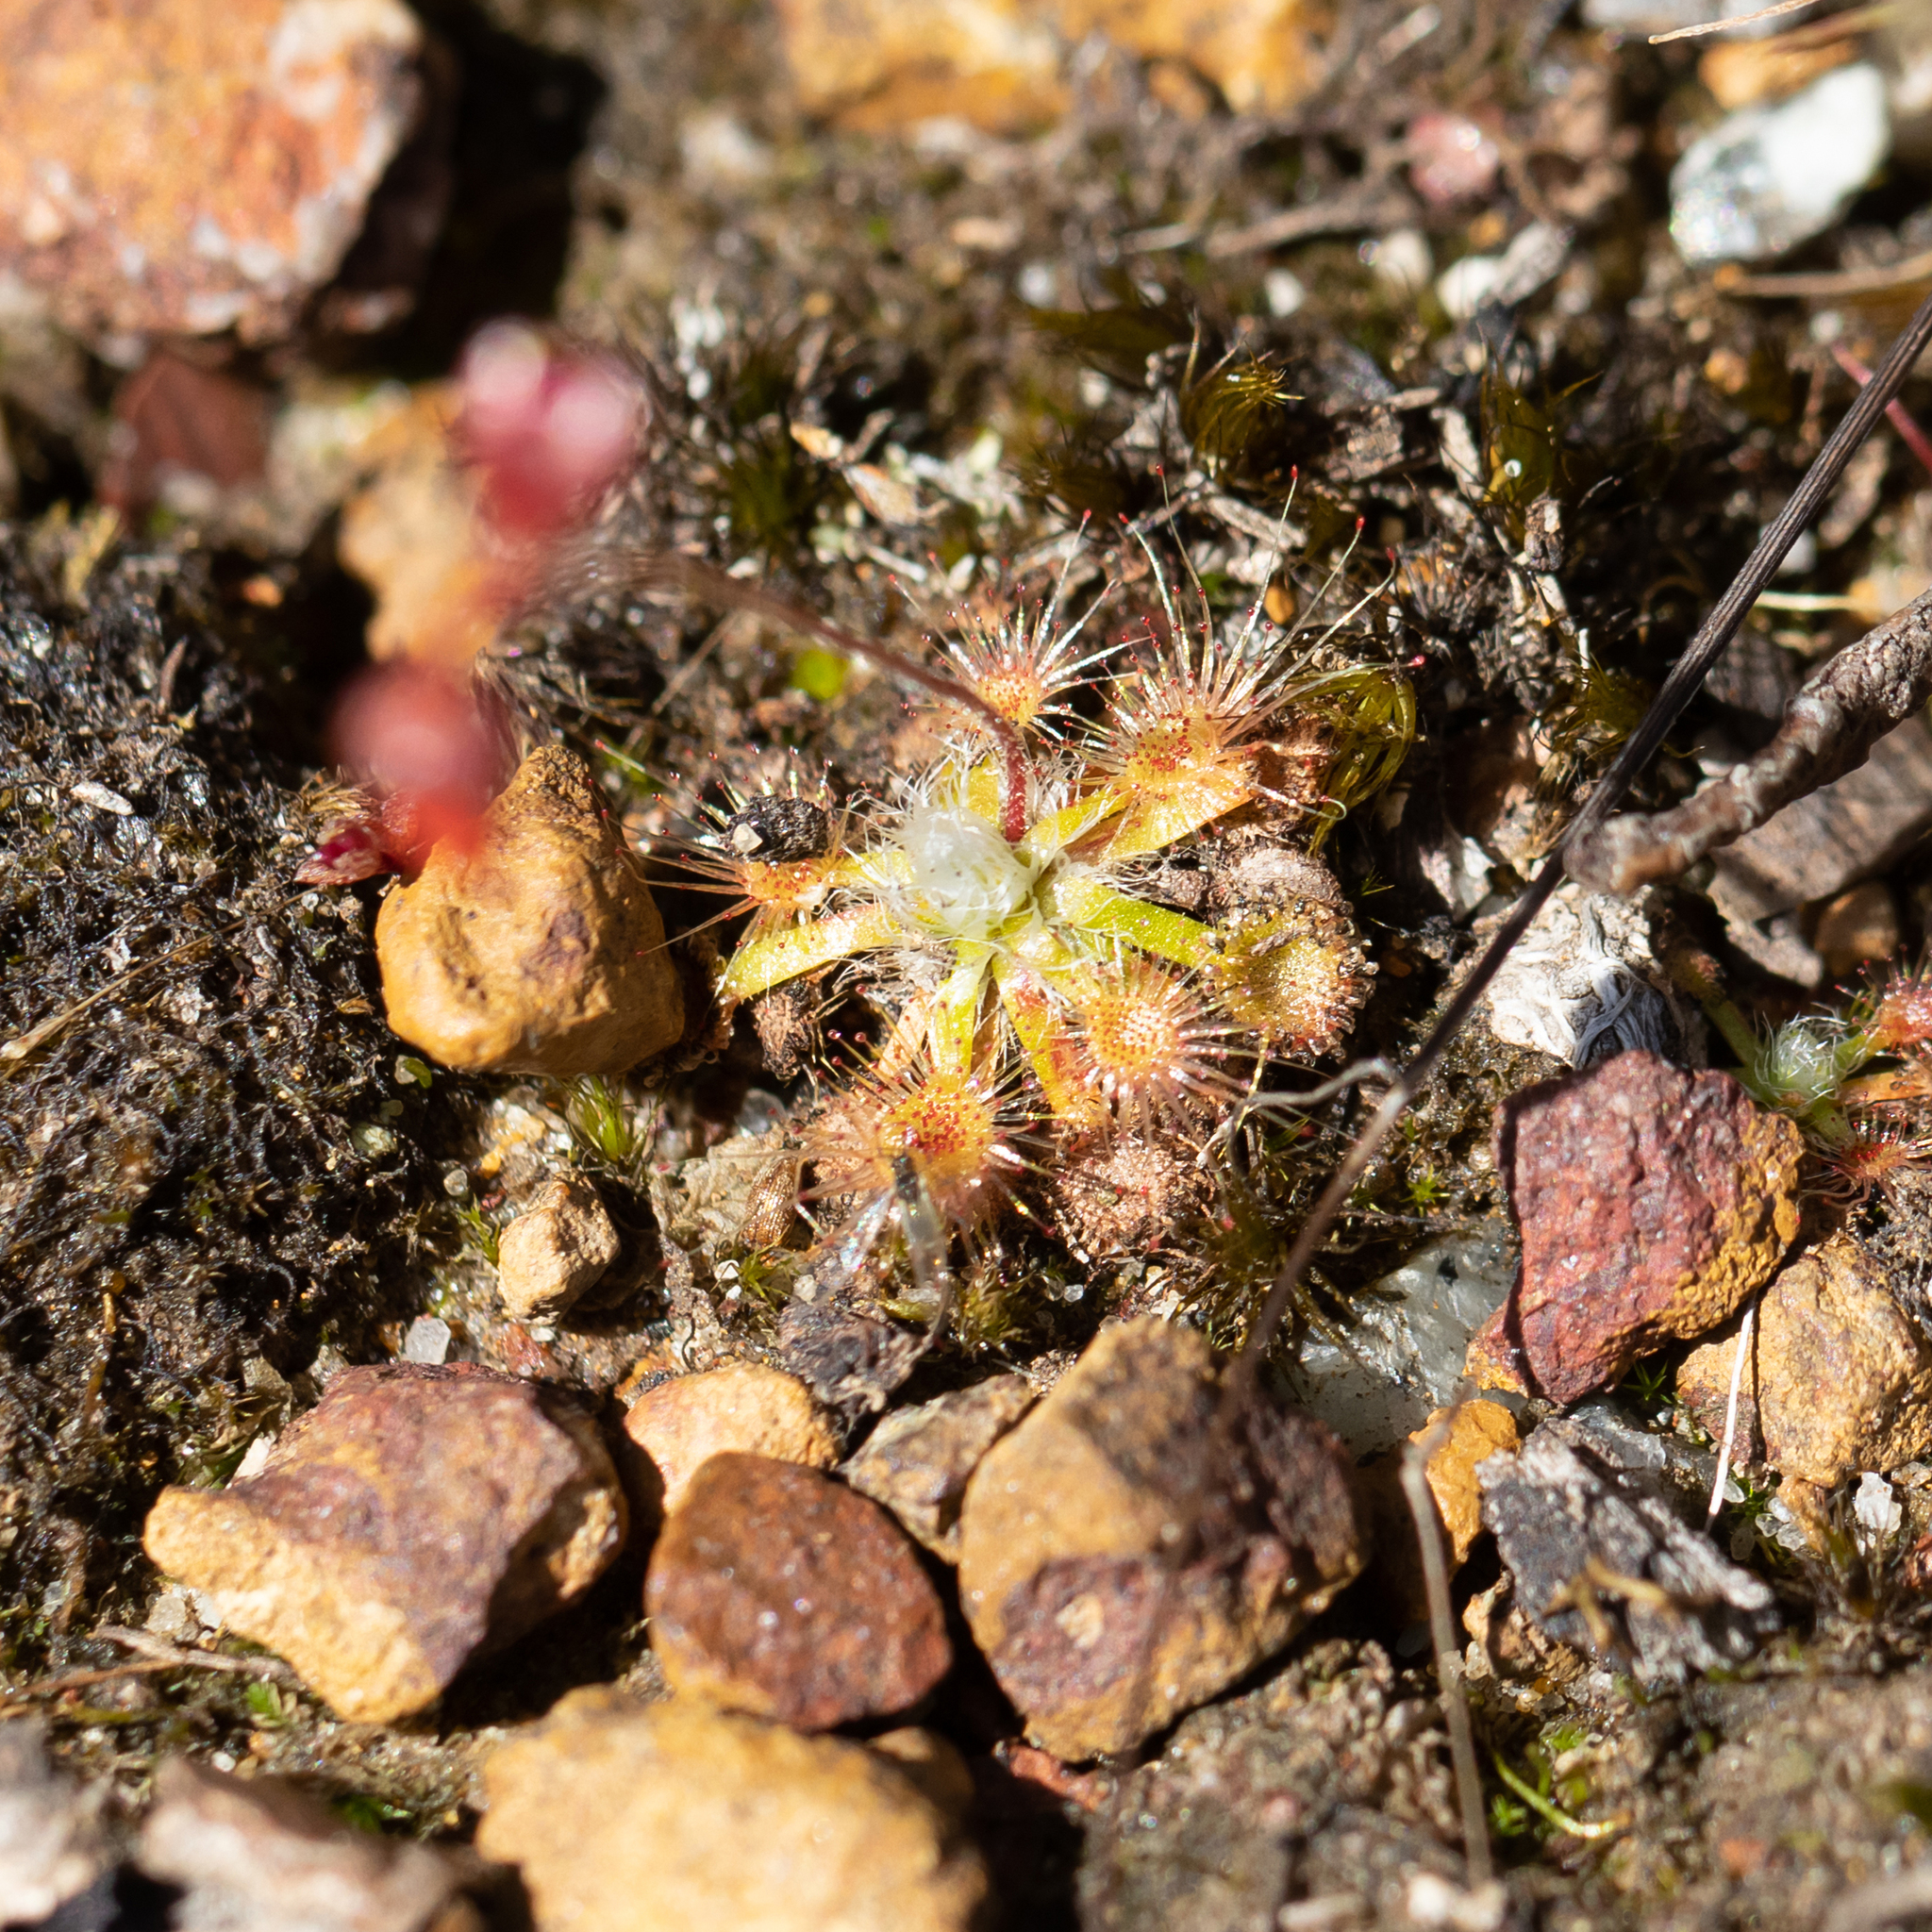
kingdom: Plantae
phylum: Tracheophyta
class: Magnoliopsida
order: Caryophyllales
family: Droseraceae
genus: Drosera
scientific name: Drosera platystigma
